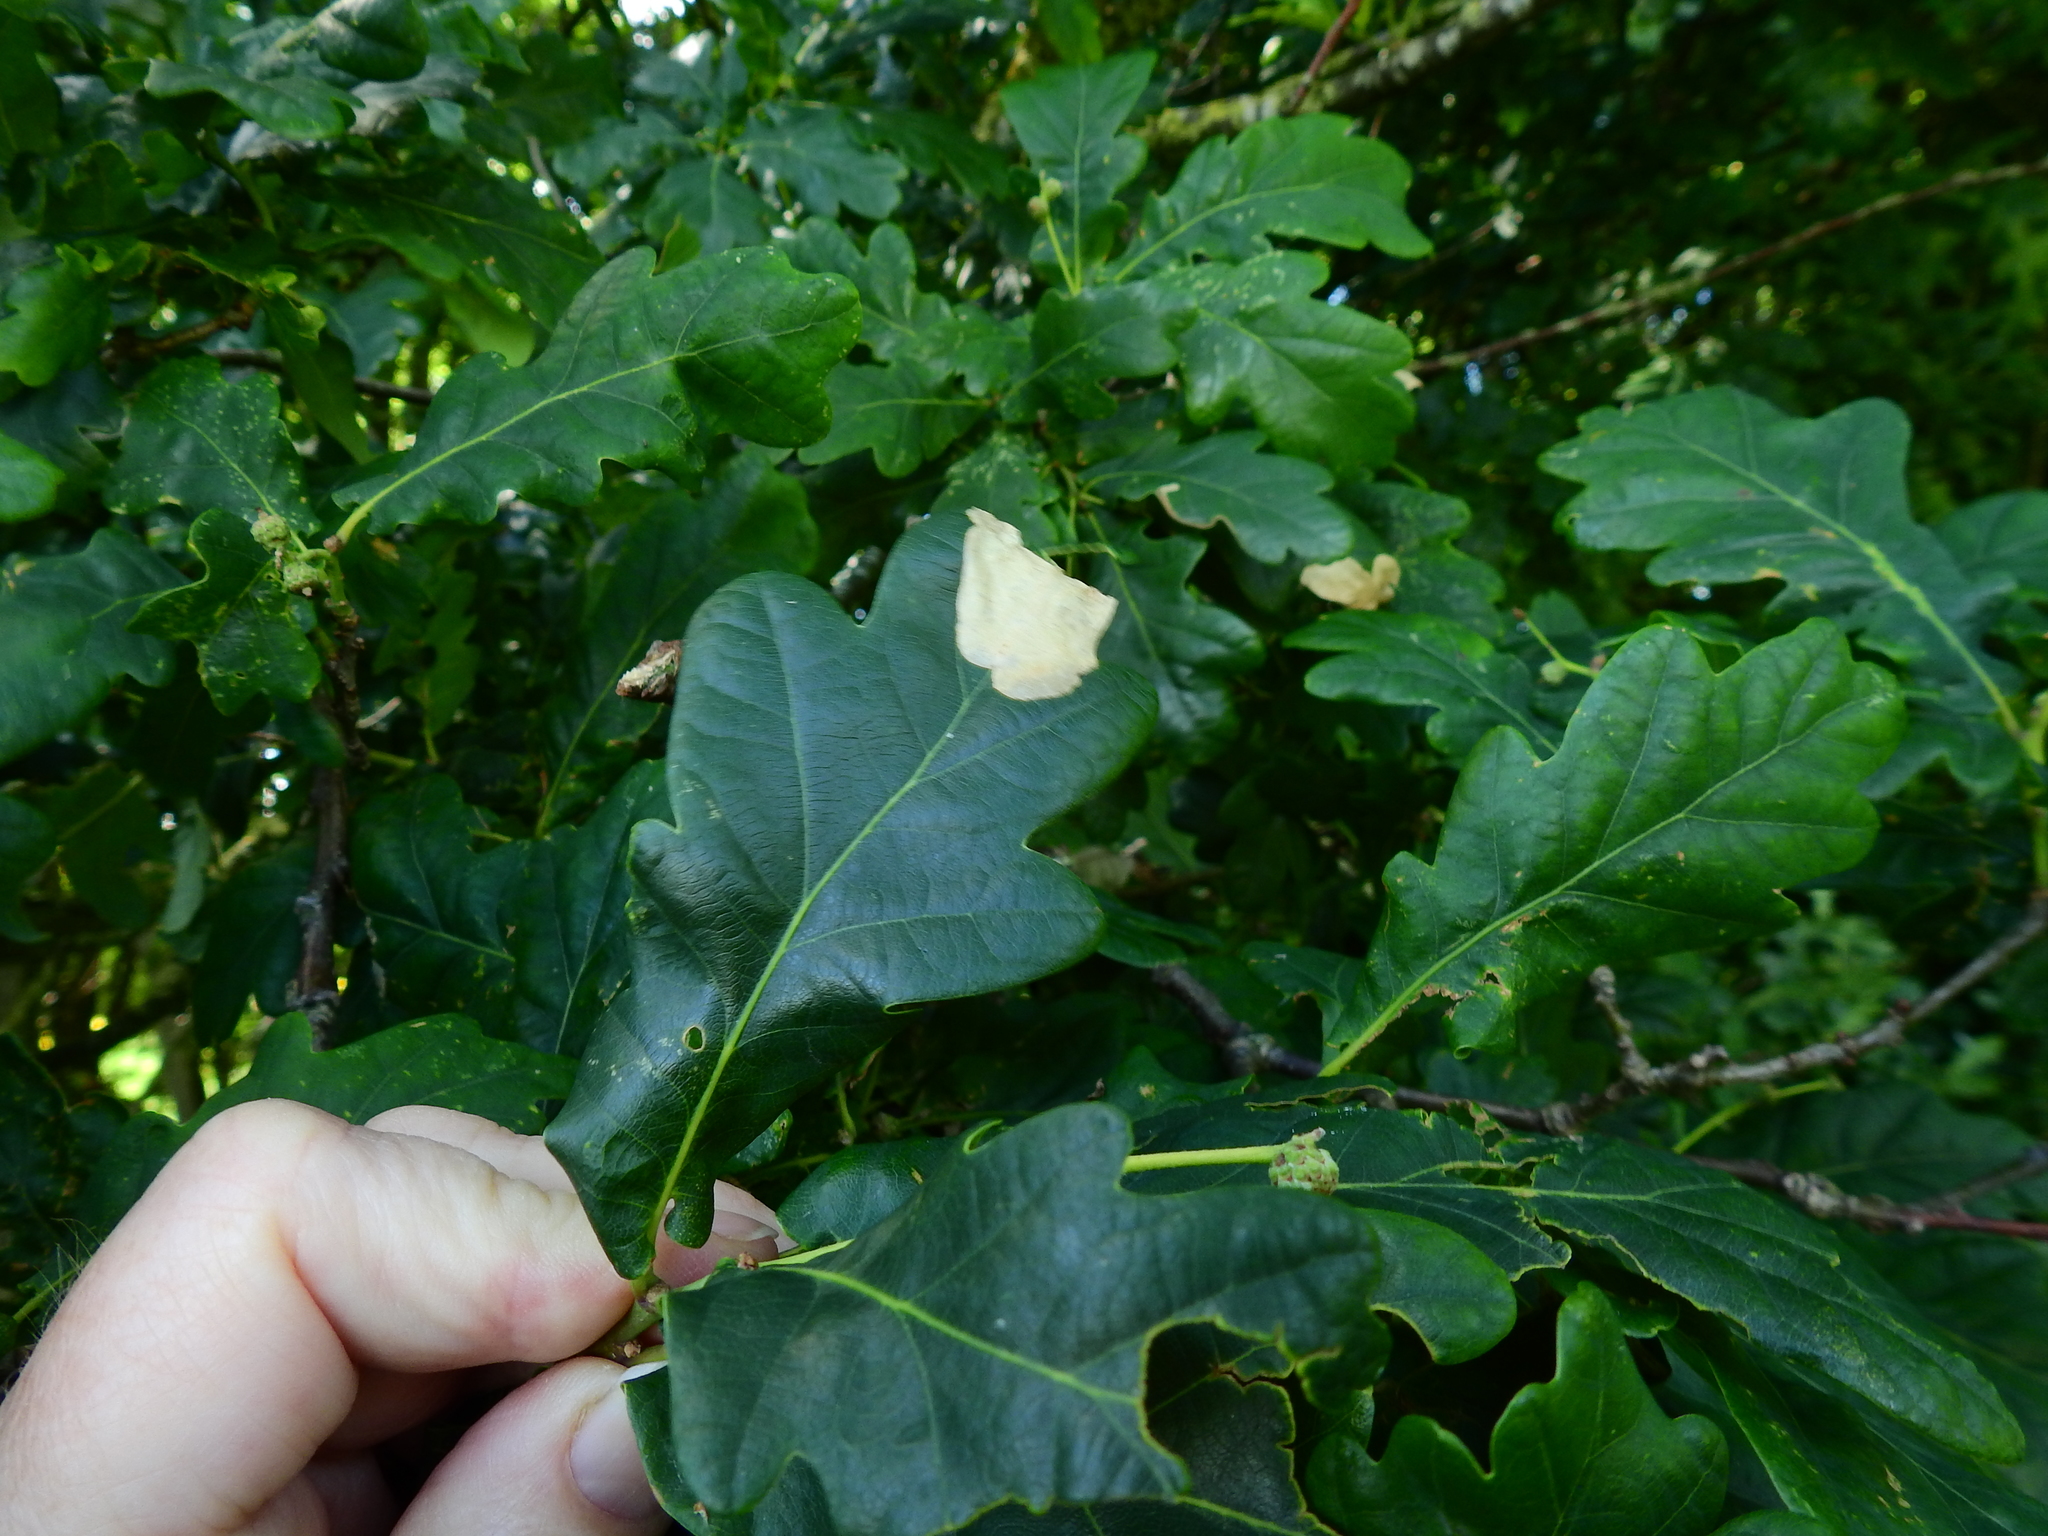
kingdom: Animalia
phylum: Arthropoda
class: Insecta
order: Lepidoptera
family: Eriocraniidae
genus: Dyseriocrania
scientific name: Dyseriocrania subpurpurella
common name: Common oak purple
